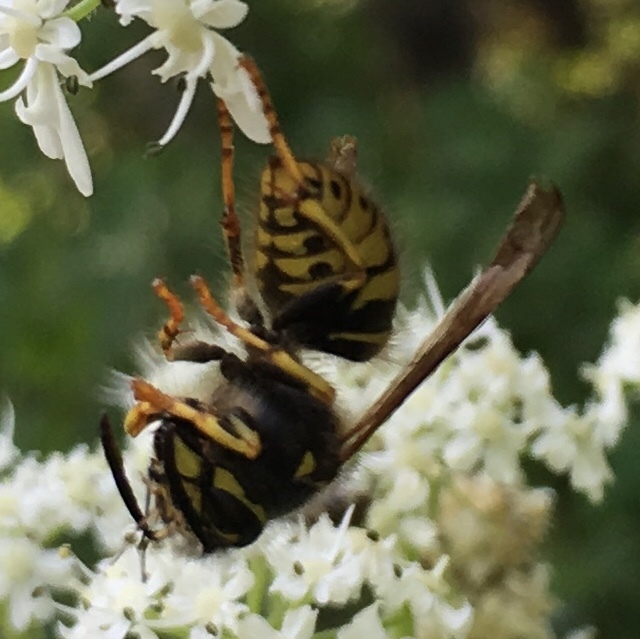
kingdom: Animalia
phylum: Arthropoda
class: Insecta
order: Hymenoptera
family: Vespidae
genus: Dolichovespula
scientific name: Dolichovespula arenaria
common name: Aerial yellowjacket
